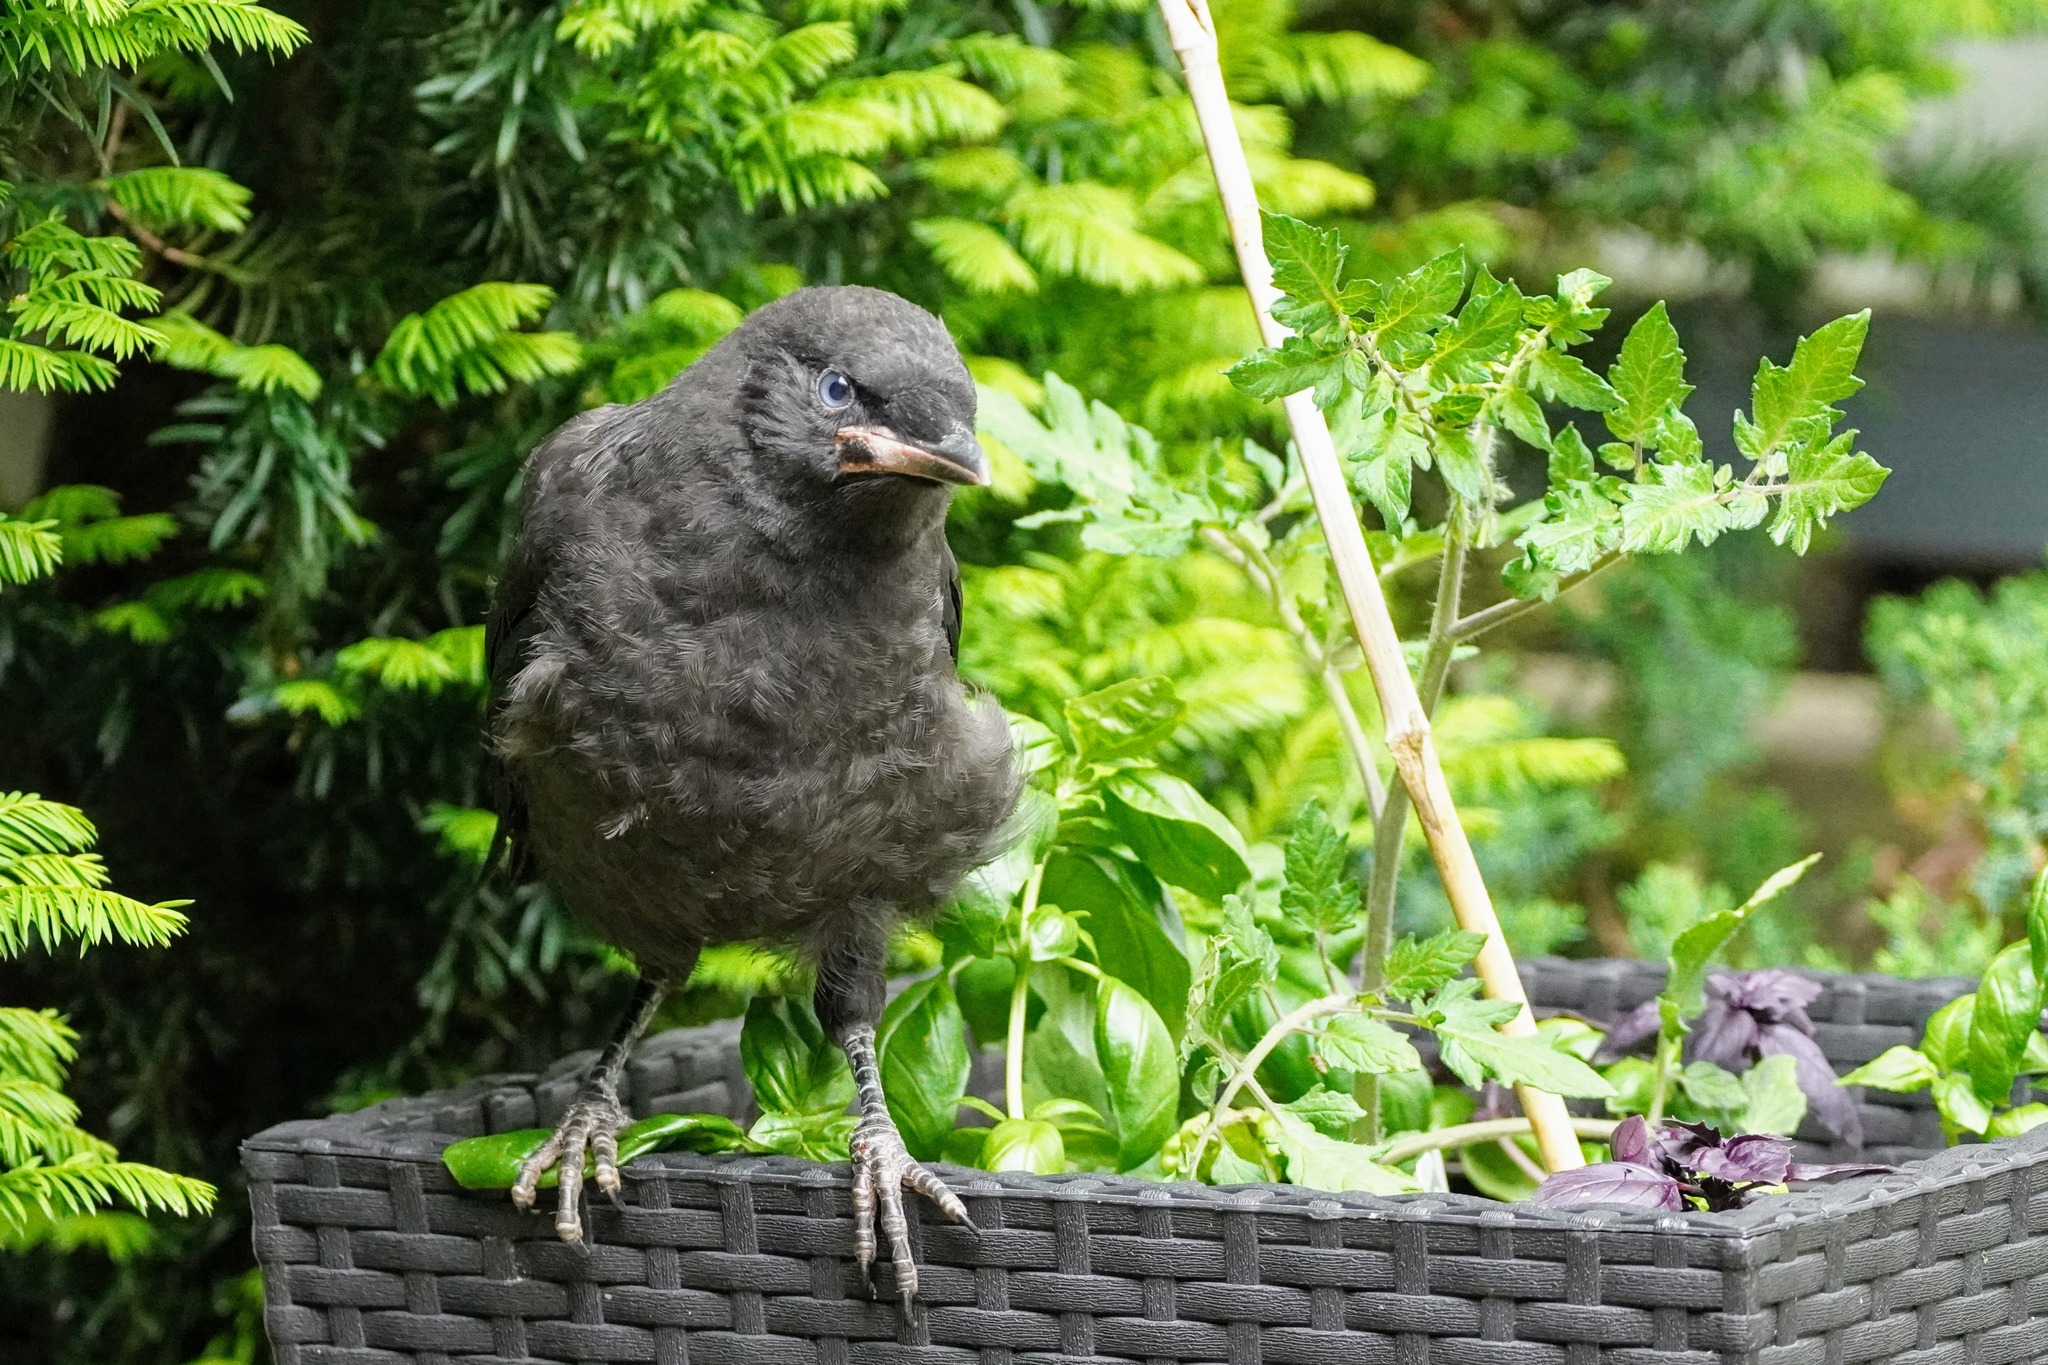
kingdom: Animalia
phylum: Chordata
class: Aves
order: Passeriformes
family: Corvidae
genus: Corvus
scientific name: Corvus brachyrhynchos
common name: American crow
